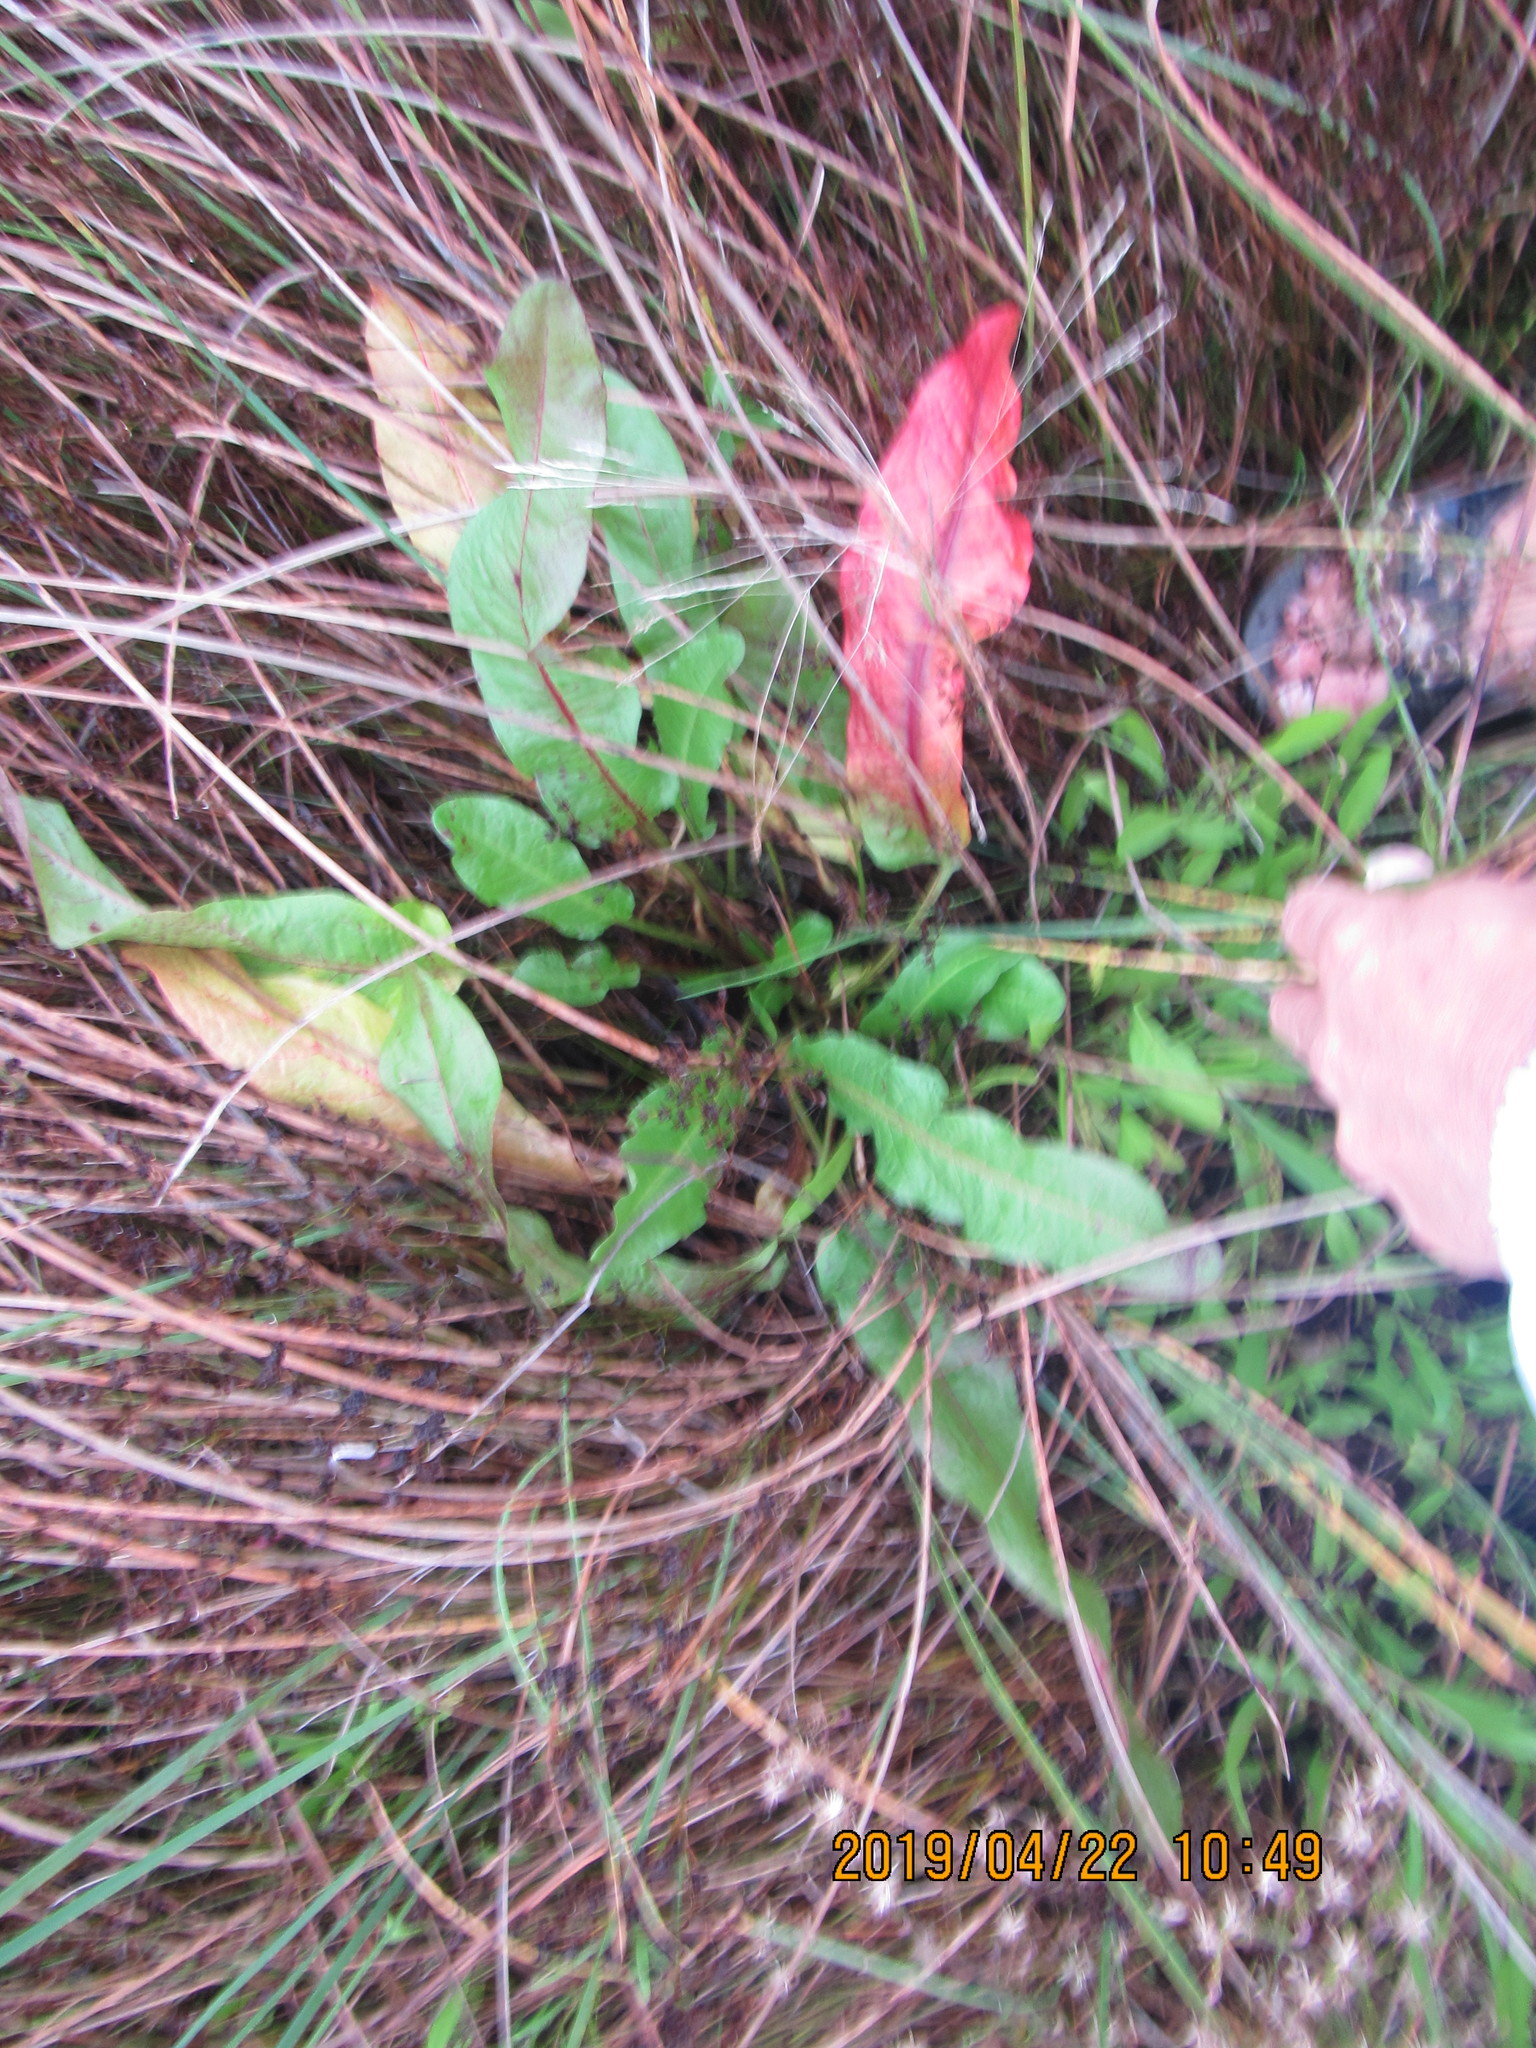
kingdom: Plantae
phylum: Tracheophyta
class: Magnoliopsida
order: Caryophyllales
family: Polygonaceae
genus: Rumex
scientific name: Rumex crispus
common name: Curled dock
